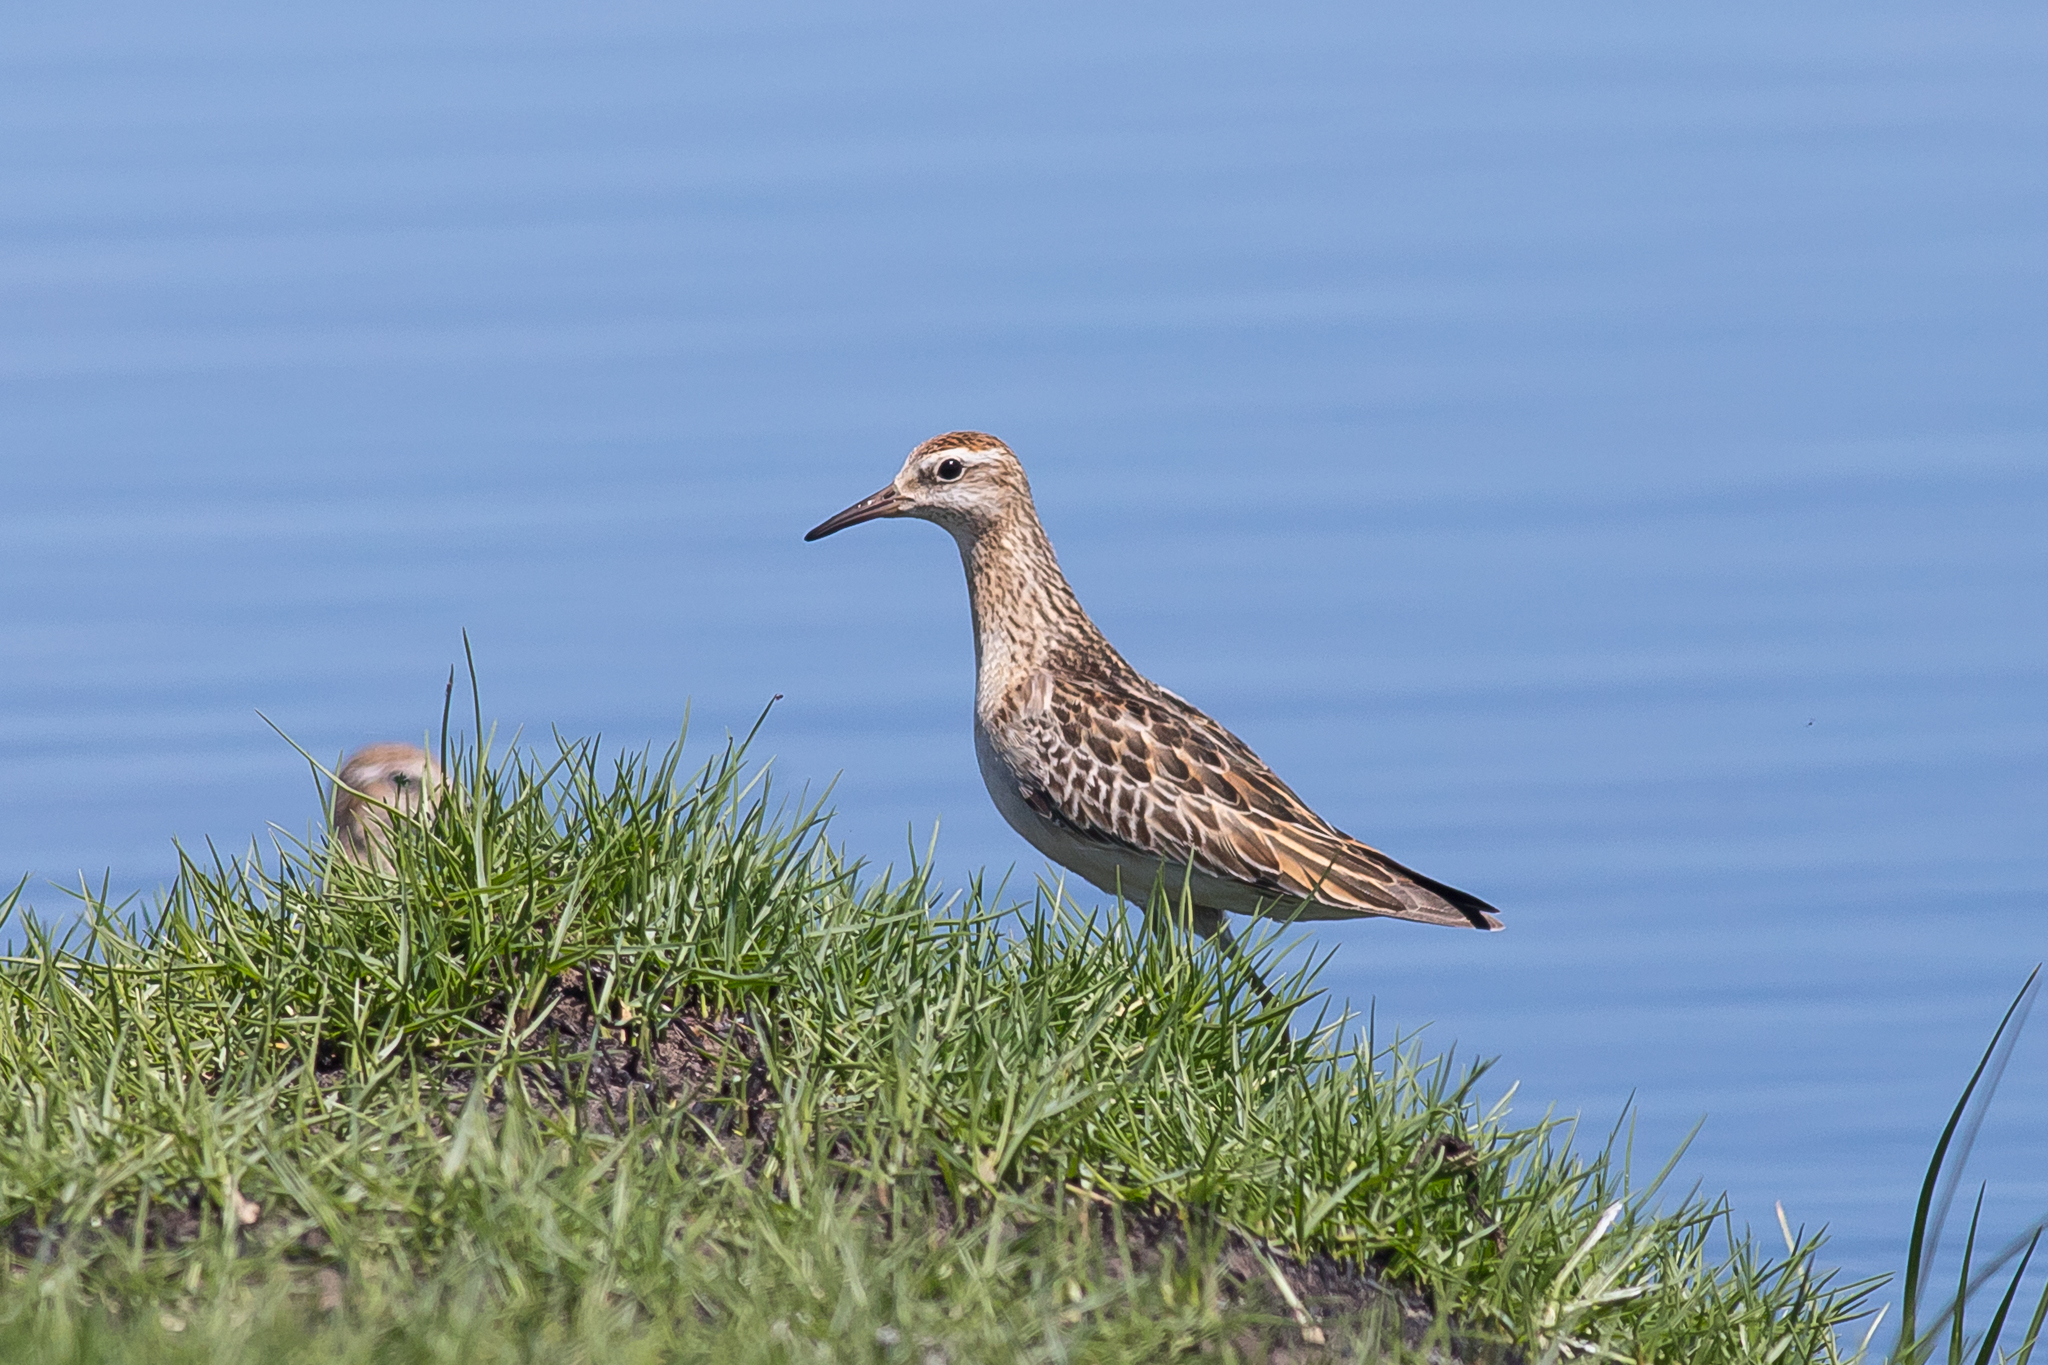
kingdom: Animalia
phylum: Chordata
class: Aves
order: Charadriiformes
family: Scolopacidae
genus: Calidris
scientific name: Calidris acuminata
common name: Sharp-tailed sandpiper
